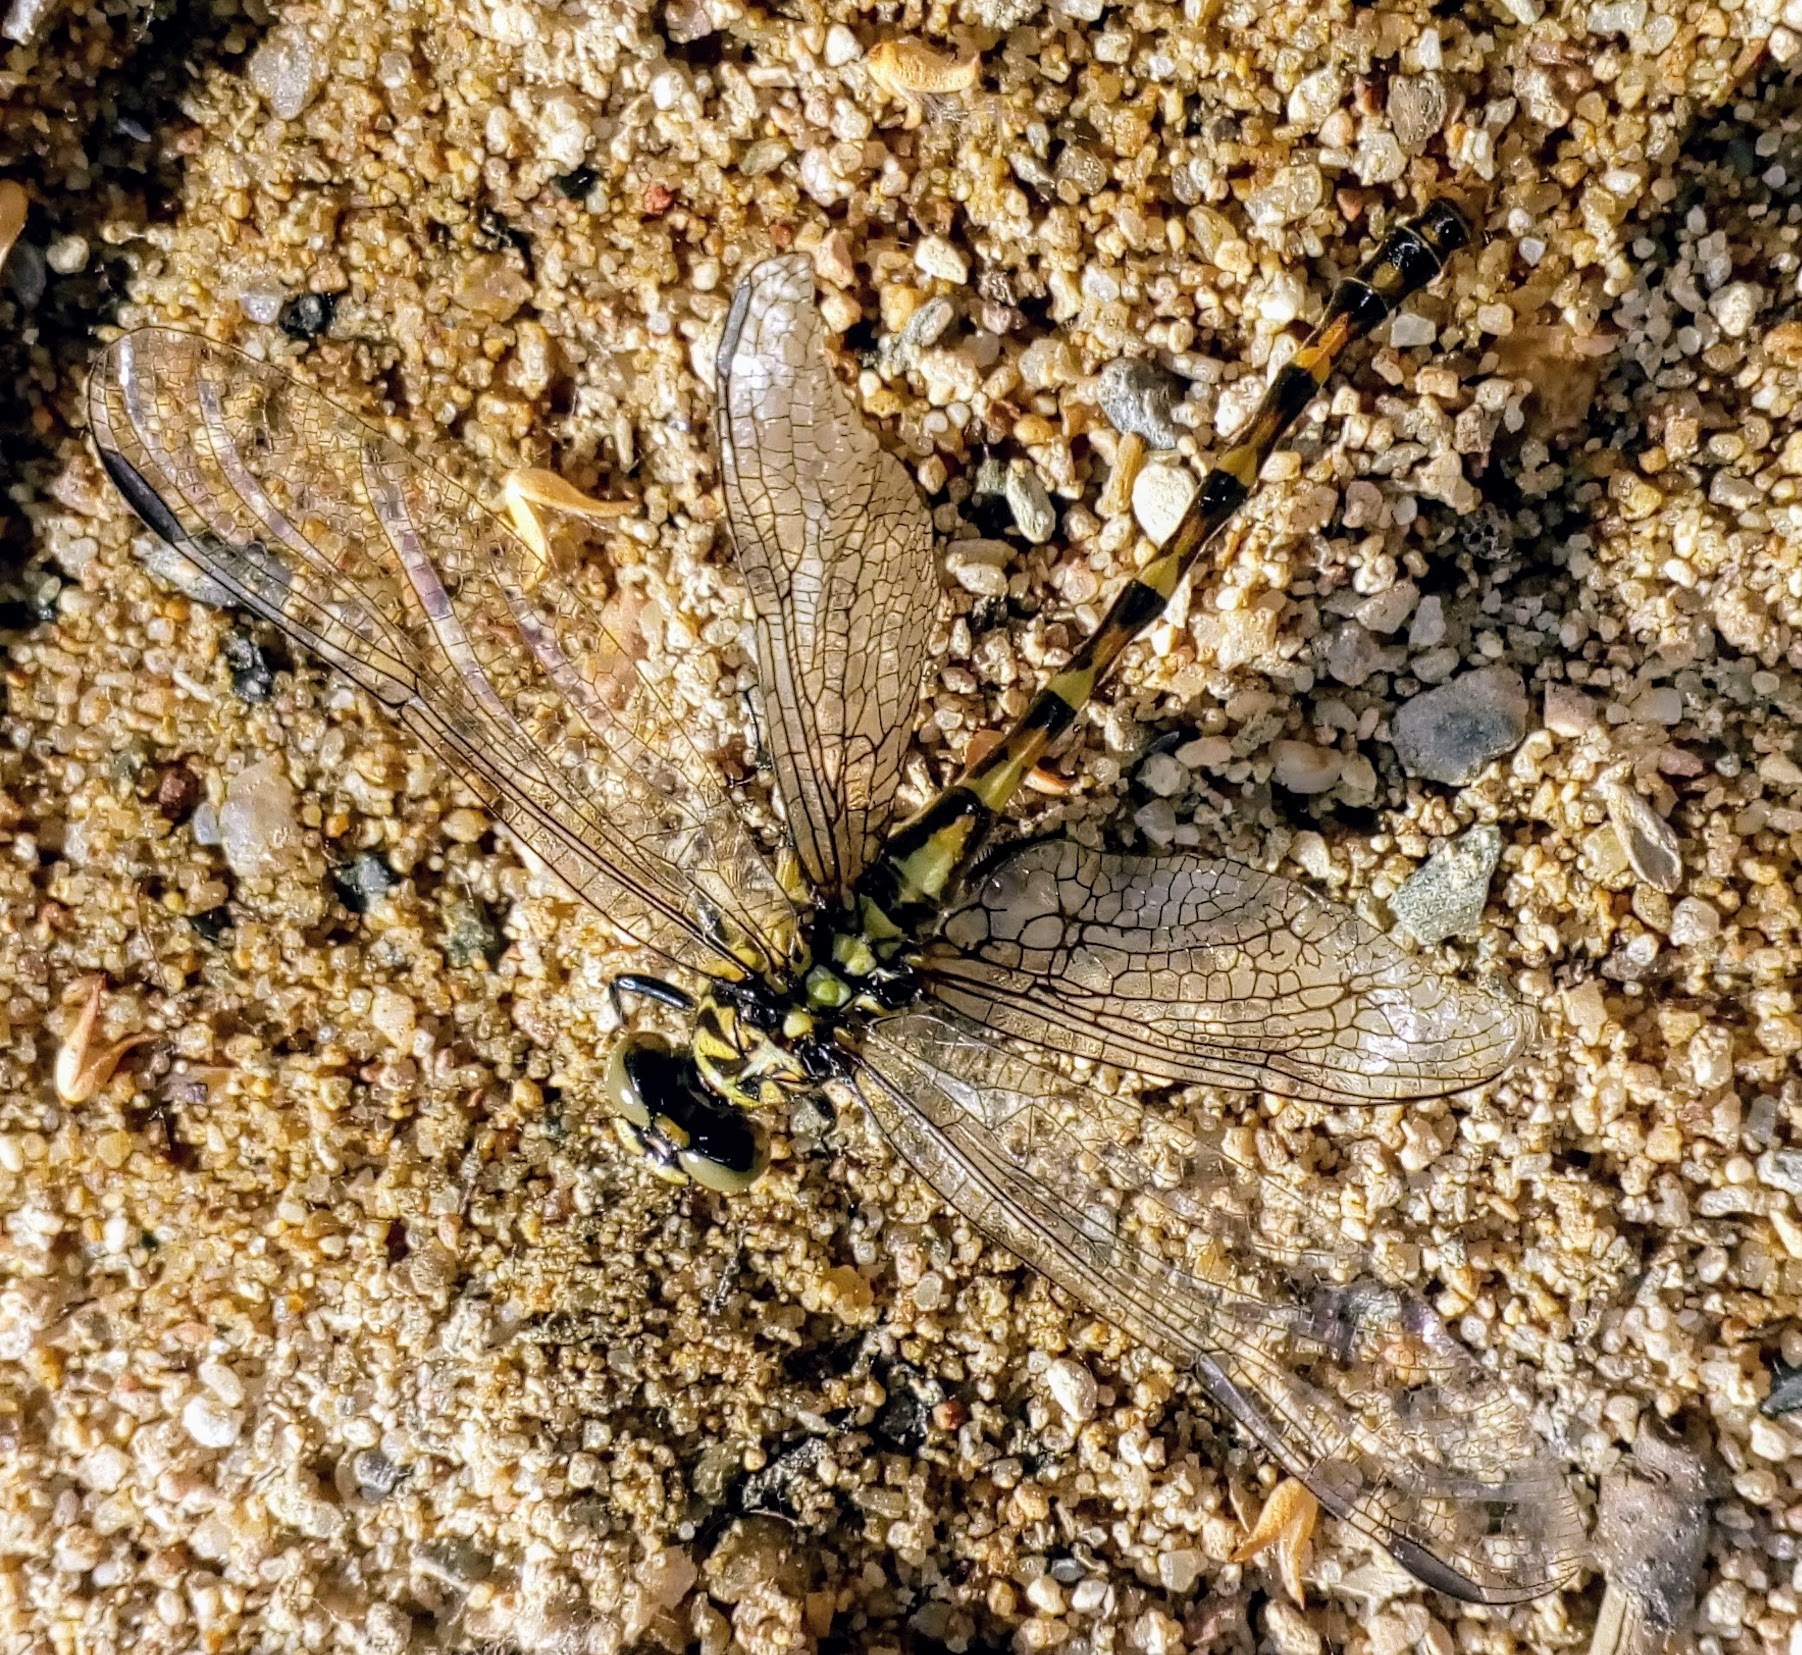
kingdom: Animalia
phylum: Arthropoda
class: Insecta
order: Odonata
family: Gomphidae
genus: Onychogomphus
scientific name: Onychogomphus forcipatus
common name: Small pincertail
